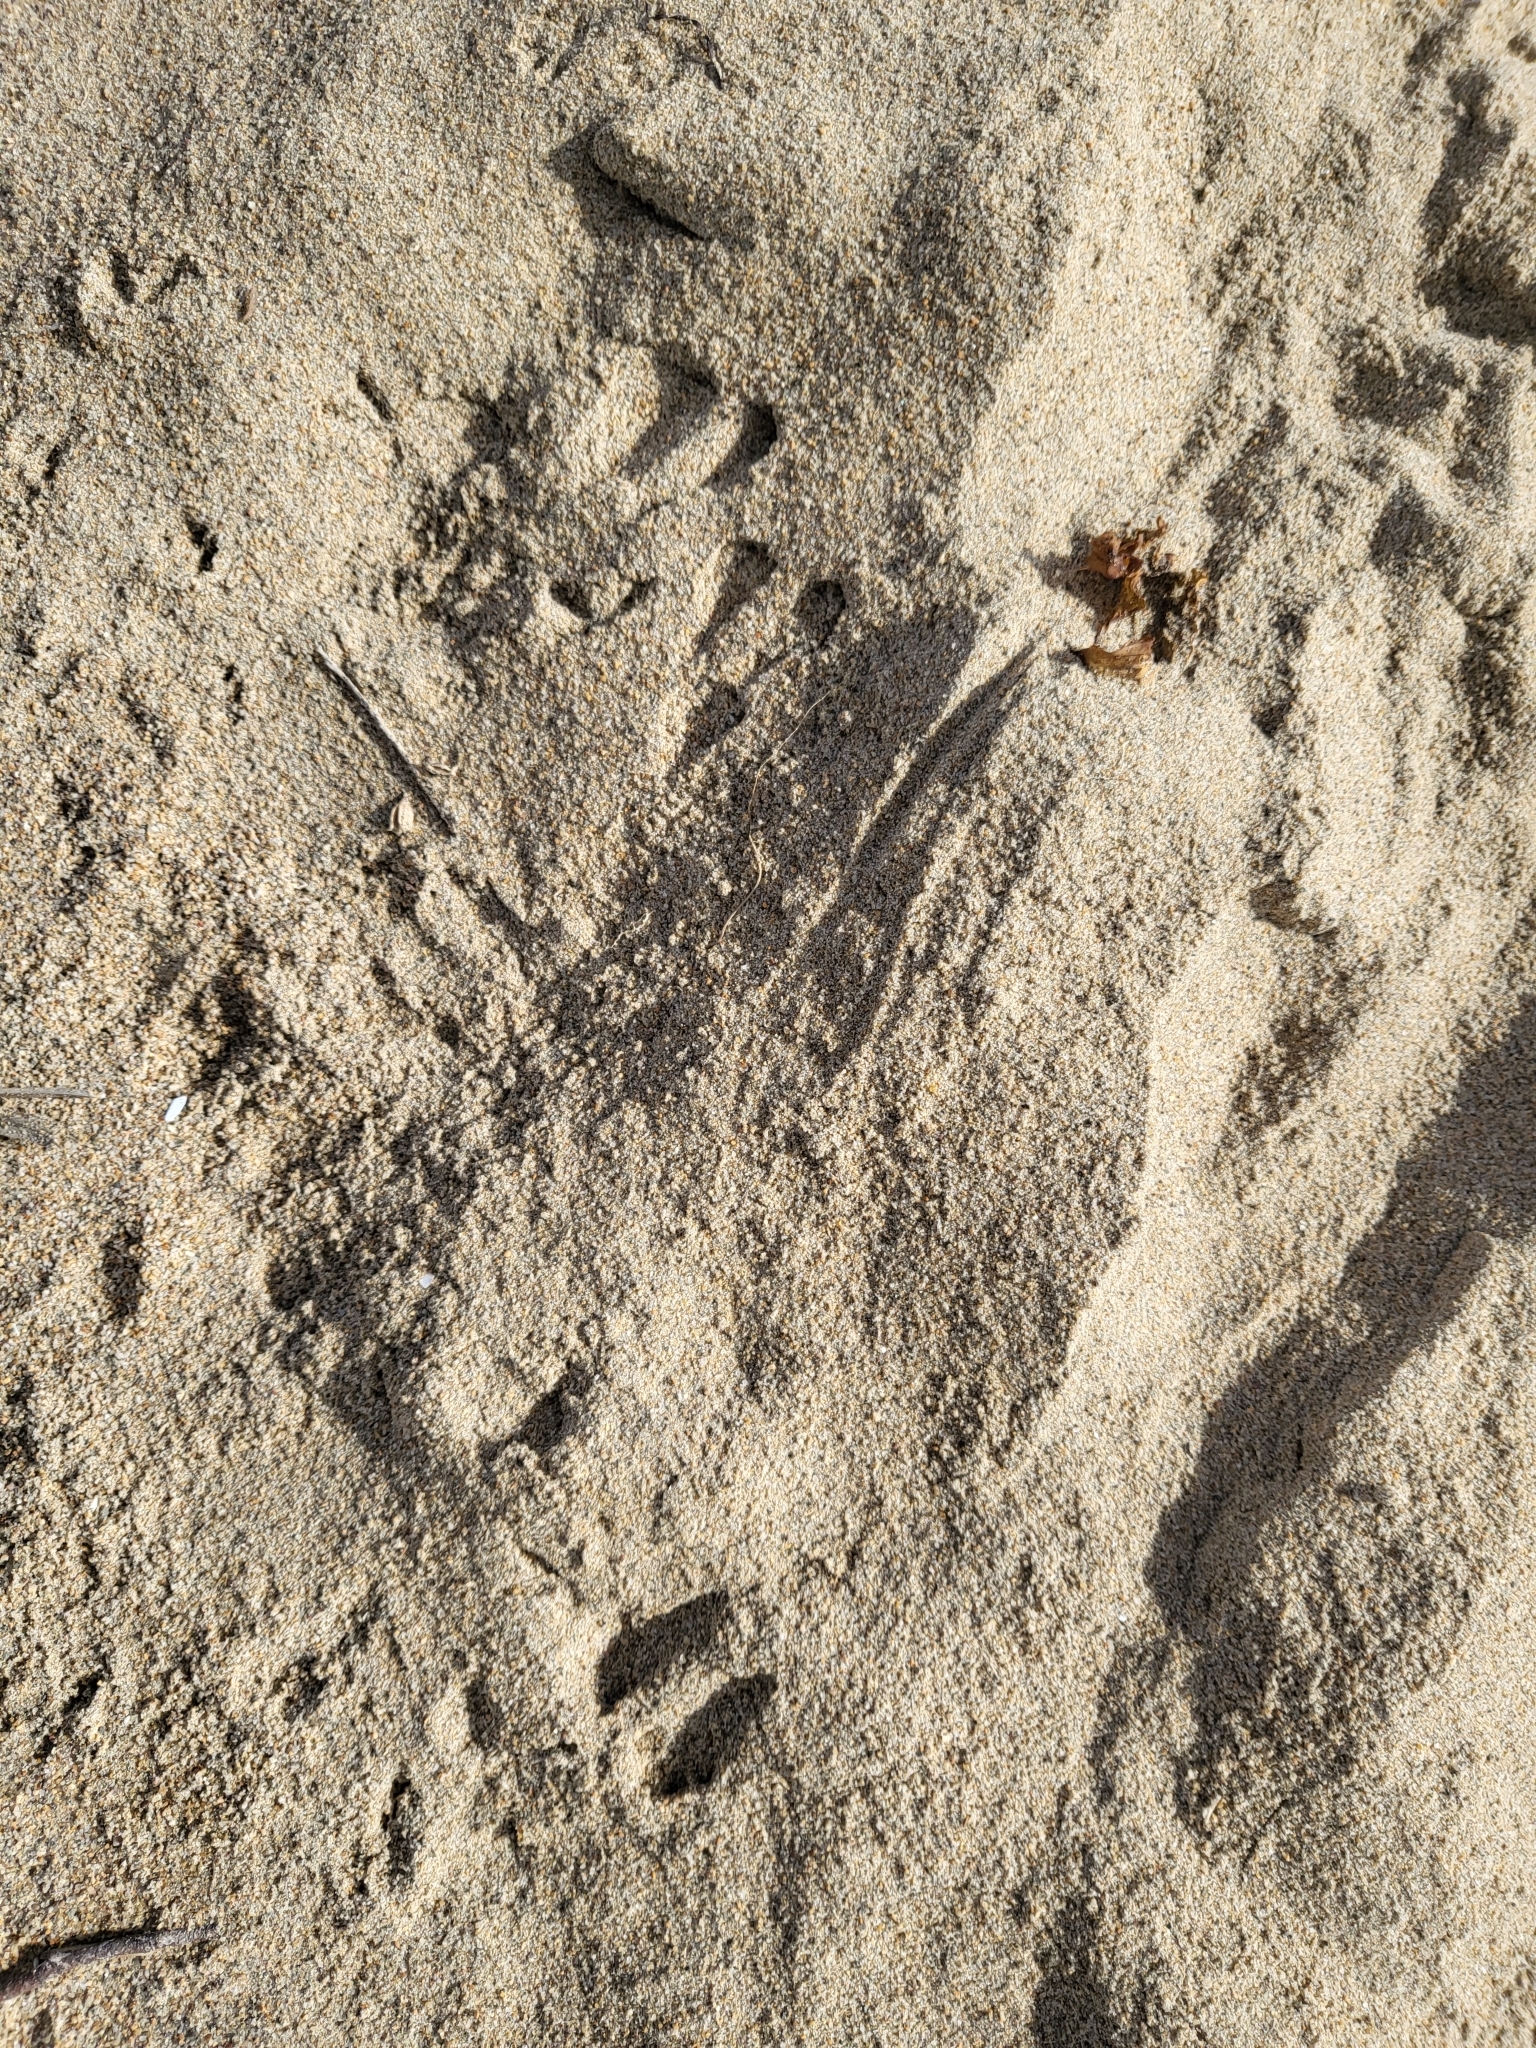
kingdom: Animalia
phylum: Chordata
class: Mammalia
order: Rodentia
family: Heteromyidae
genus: Dipodomys
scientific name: Dipodomys heermanni
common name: Heermann's kangaroo rat
